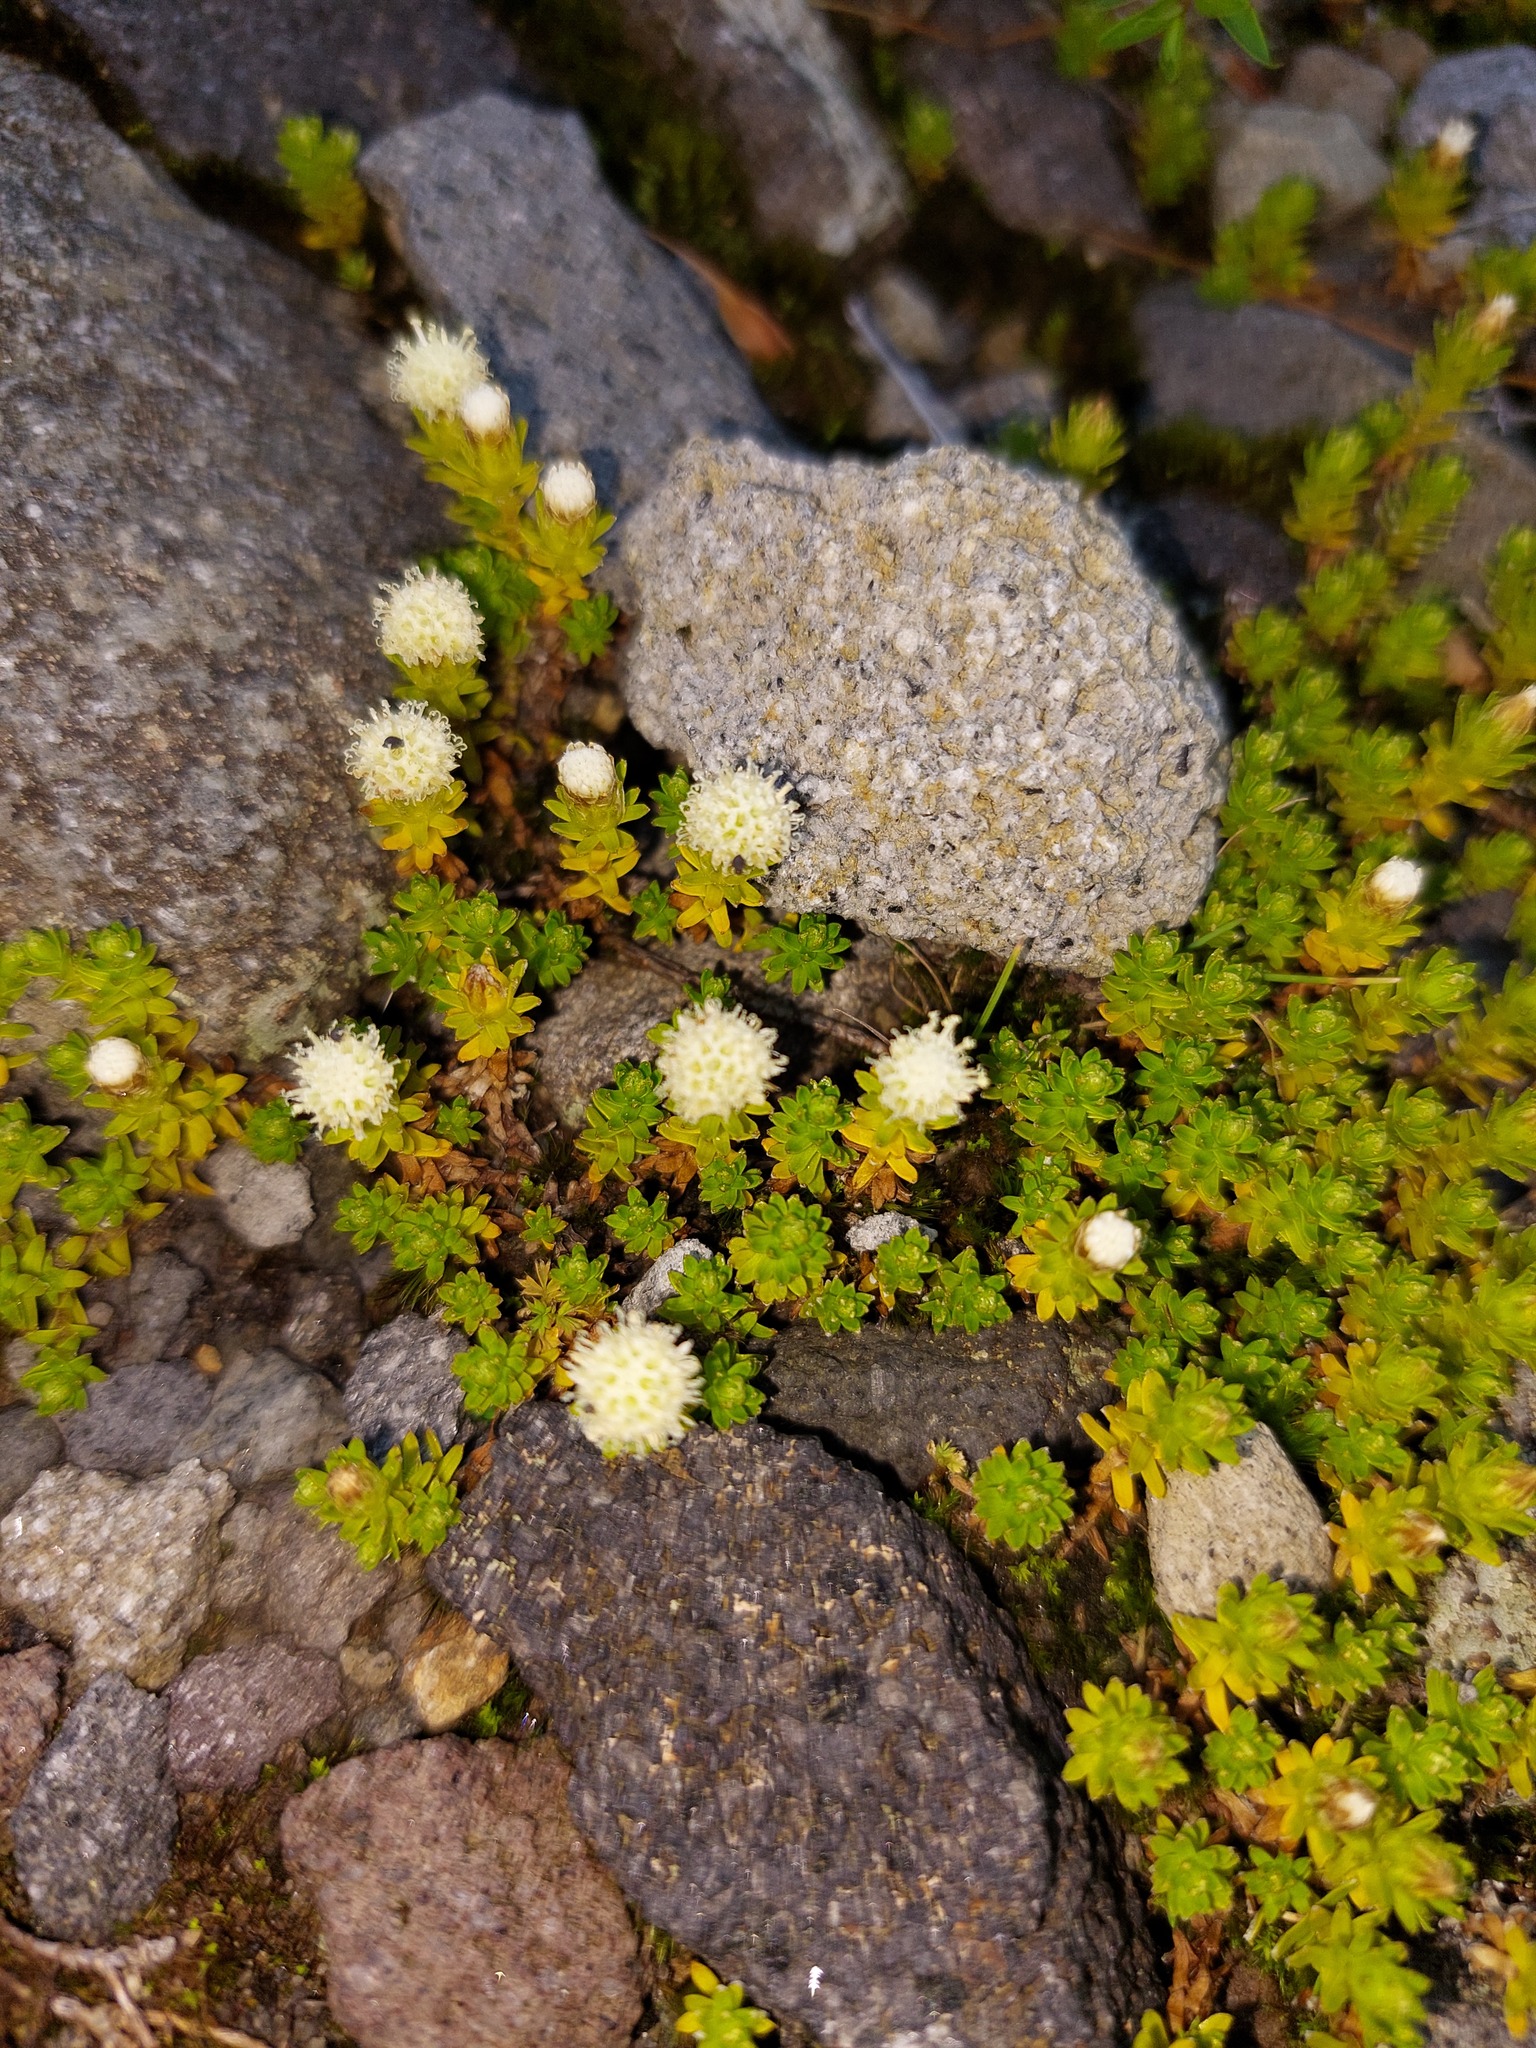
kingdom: Plantae
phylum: Tracheophyta
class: Magnoliopsida
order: Asterales
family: Asteraceae
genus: Raoulia
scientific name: Raoulia glabra
